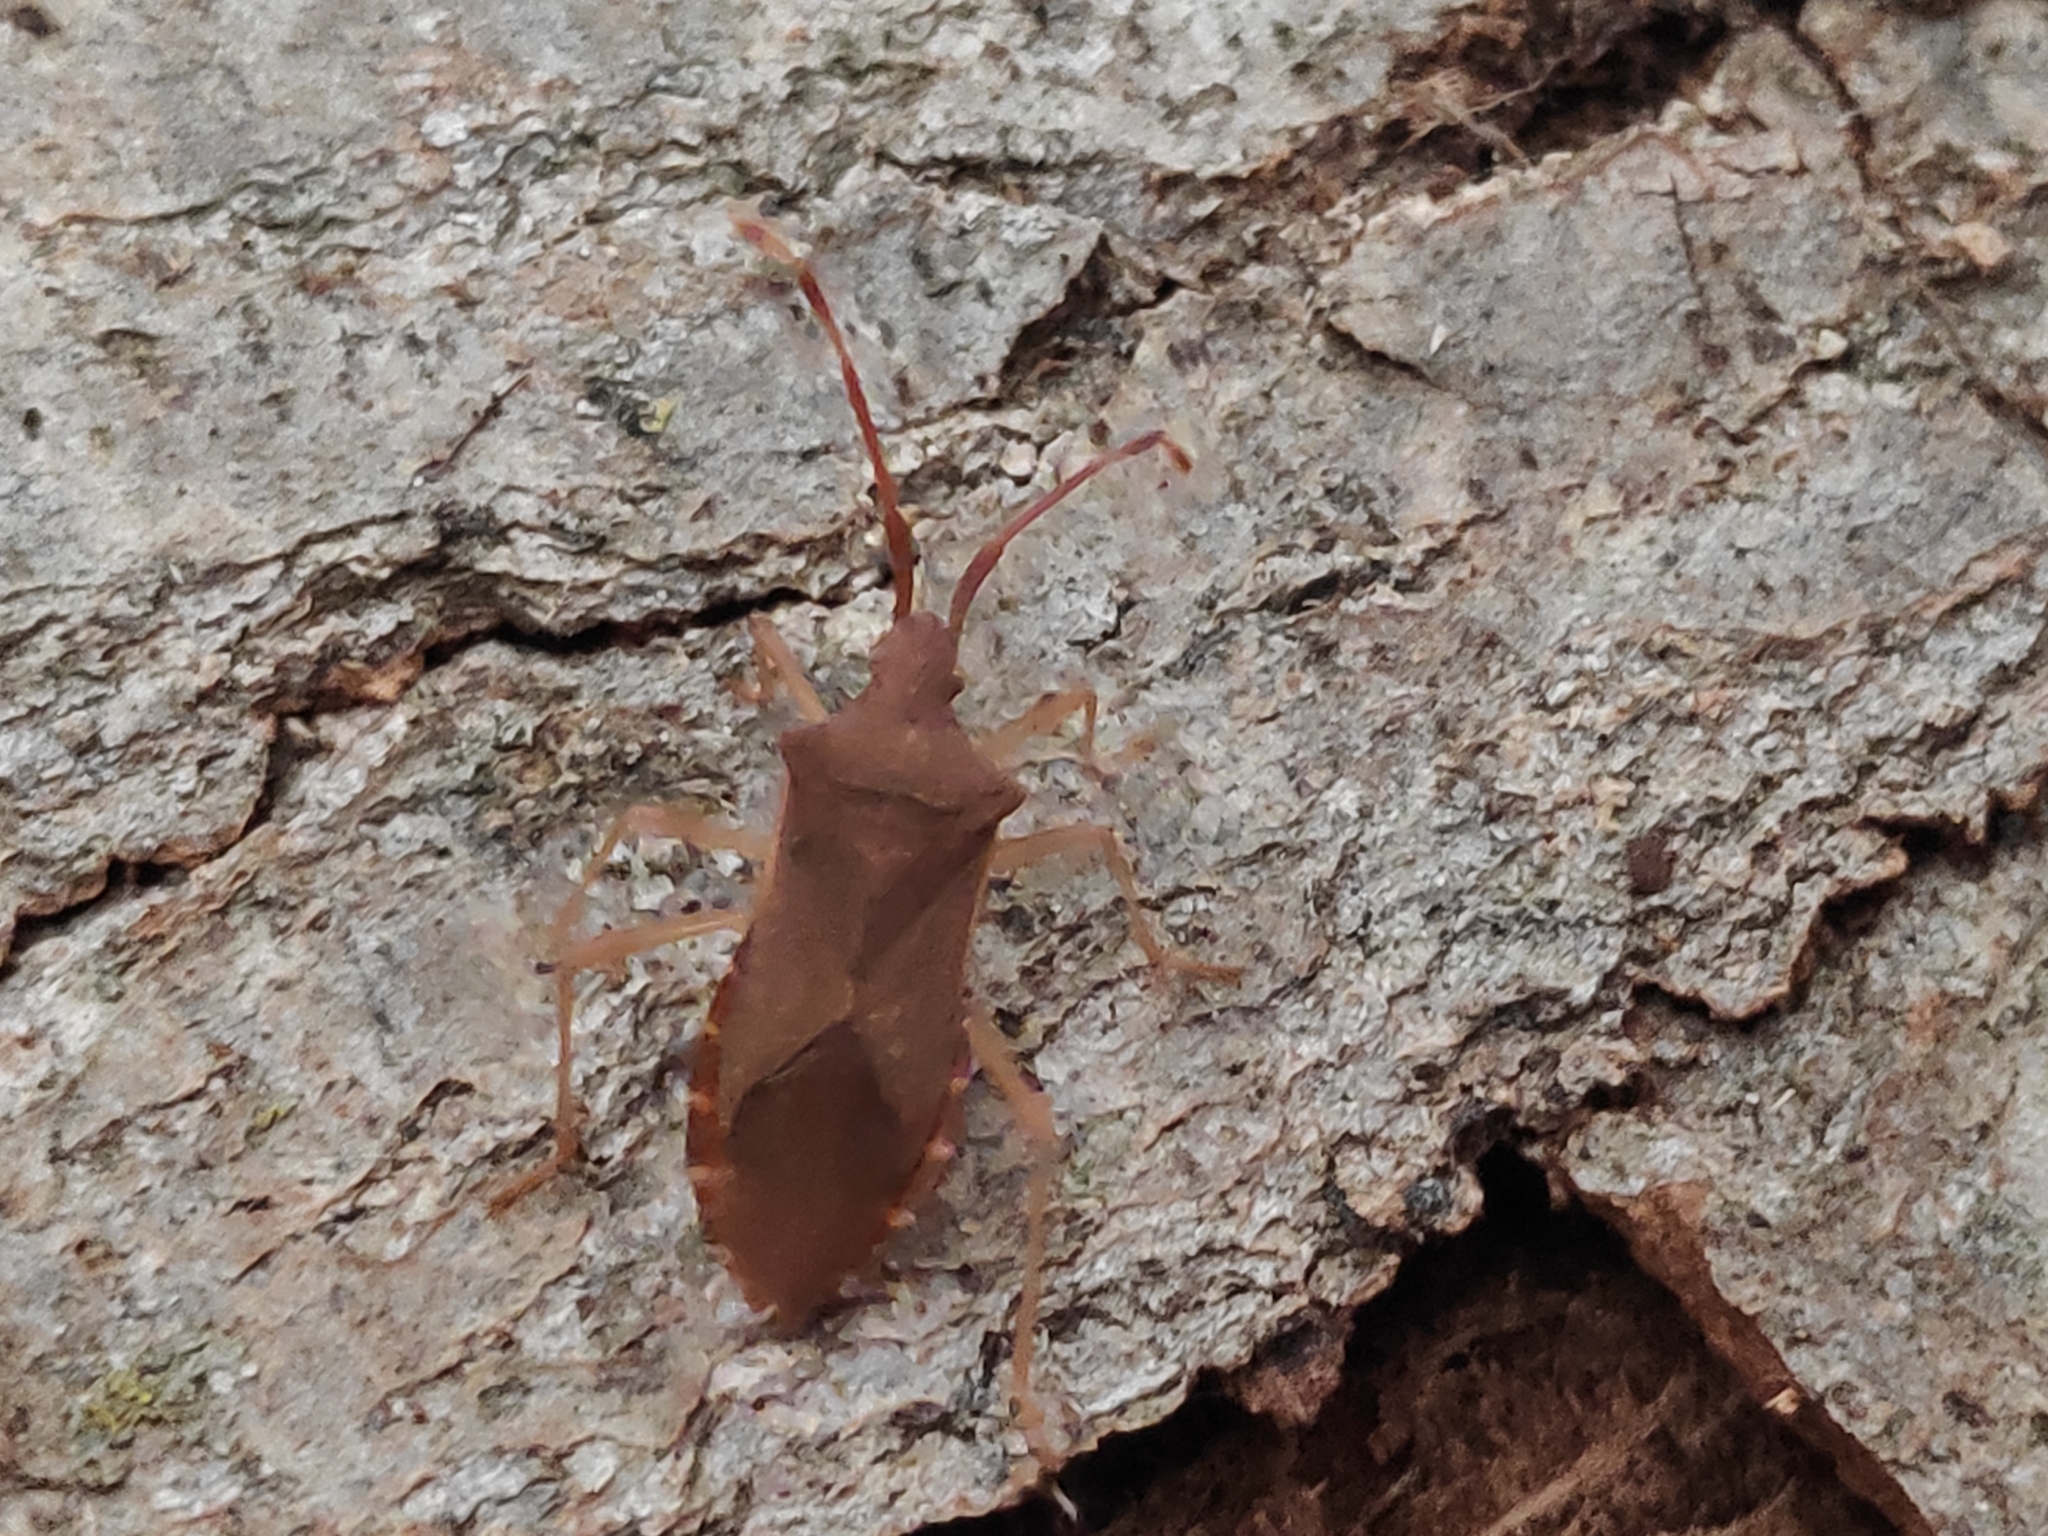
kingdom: Animalia
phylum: Arthropoda
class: Insecta
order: Hemiptera
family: Coreidae
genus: Gonocerus
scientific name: Gonocerus acuteangulatus
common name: Box bug
